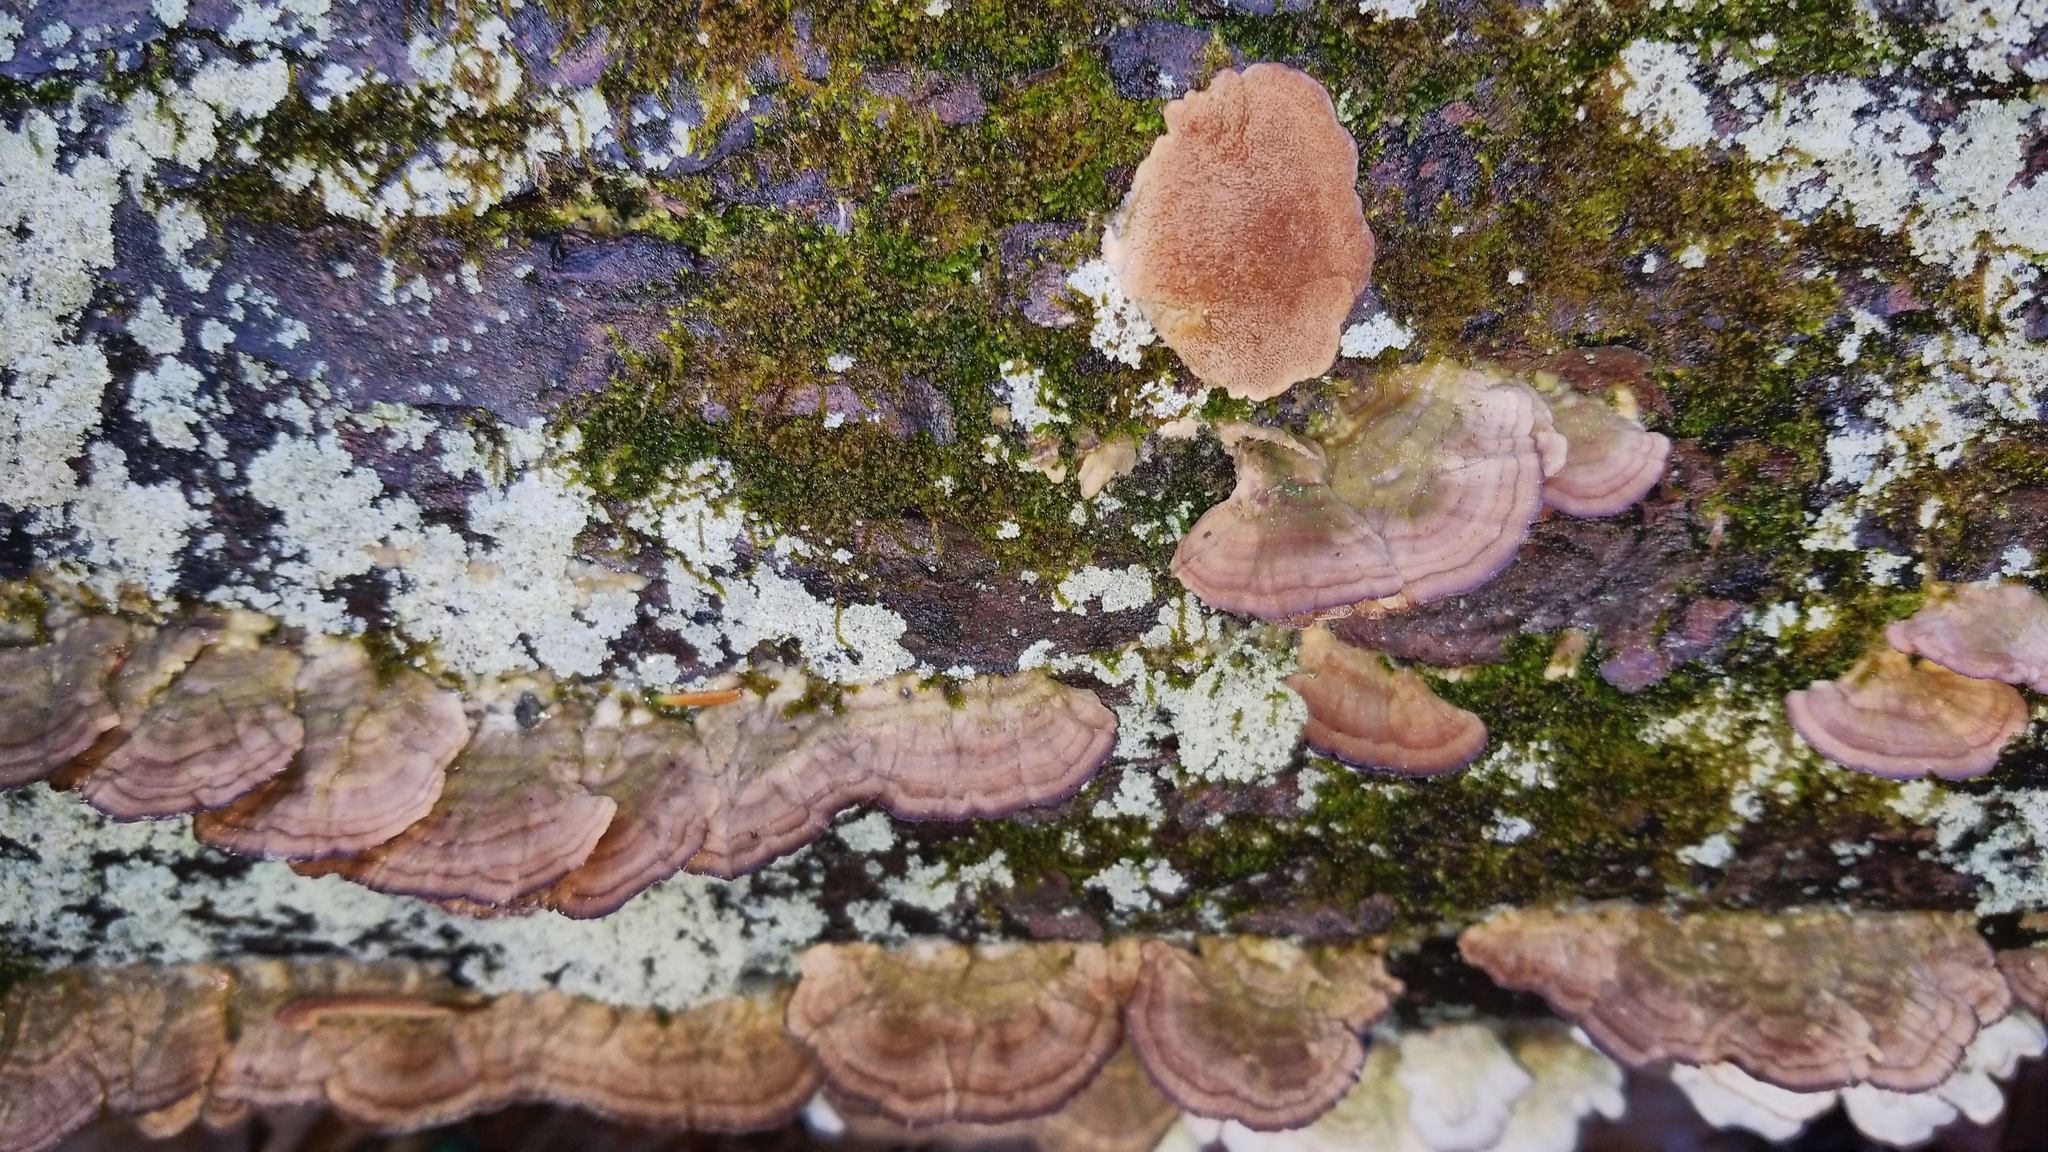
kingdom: Fungi
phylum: Basidiomycota
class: Agaricomycetes
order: Hymenochaetales
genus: Trichaptum
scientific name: Trichaptum biforme
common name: Violet-toothed polypore
